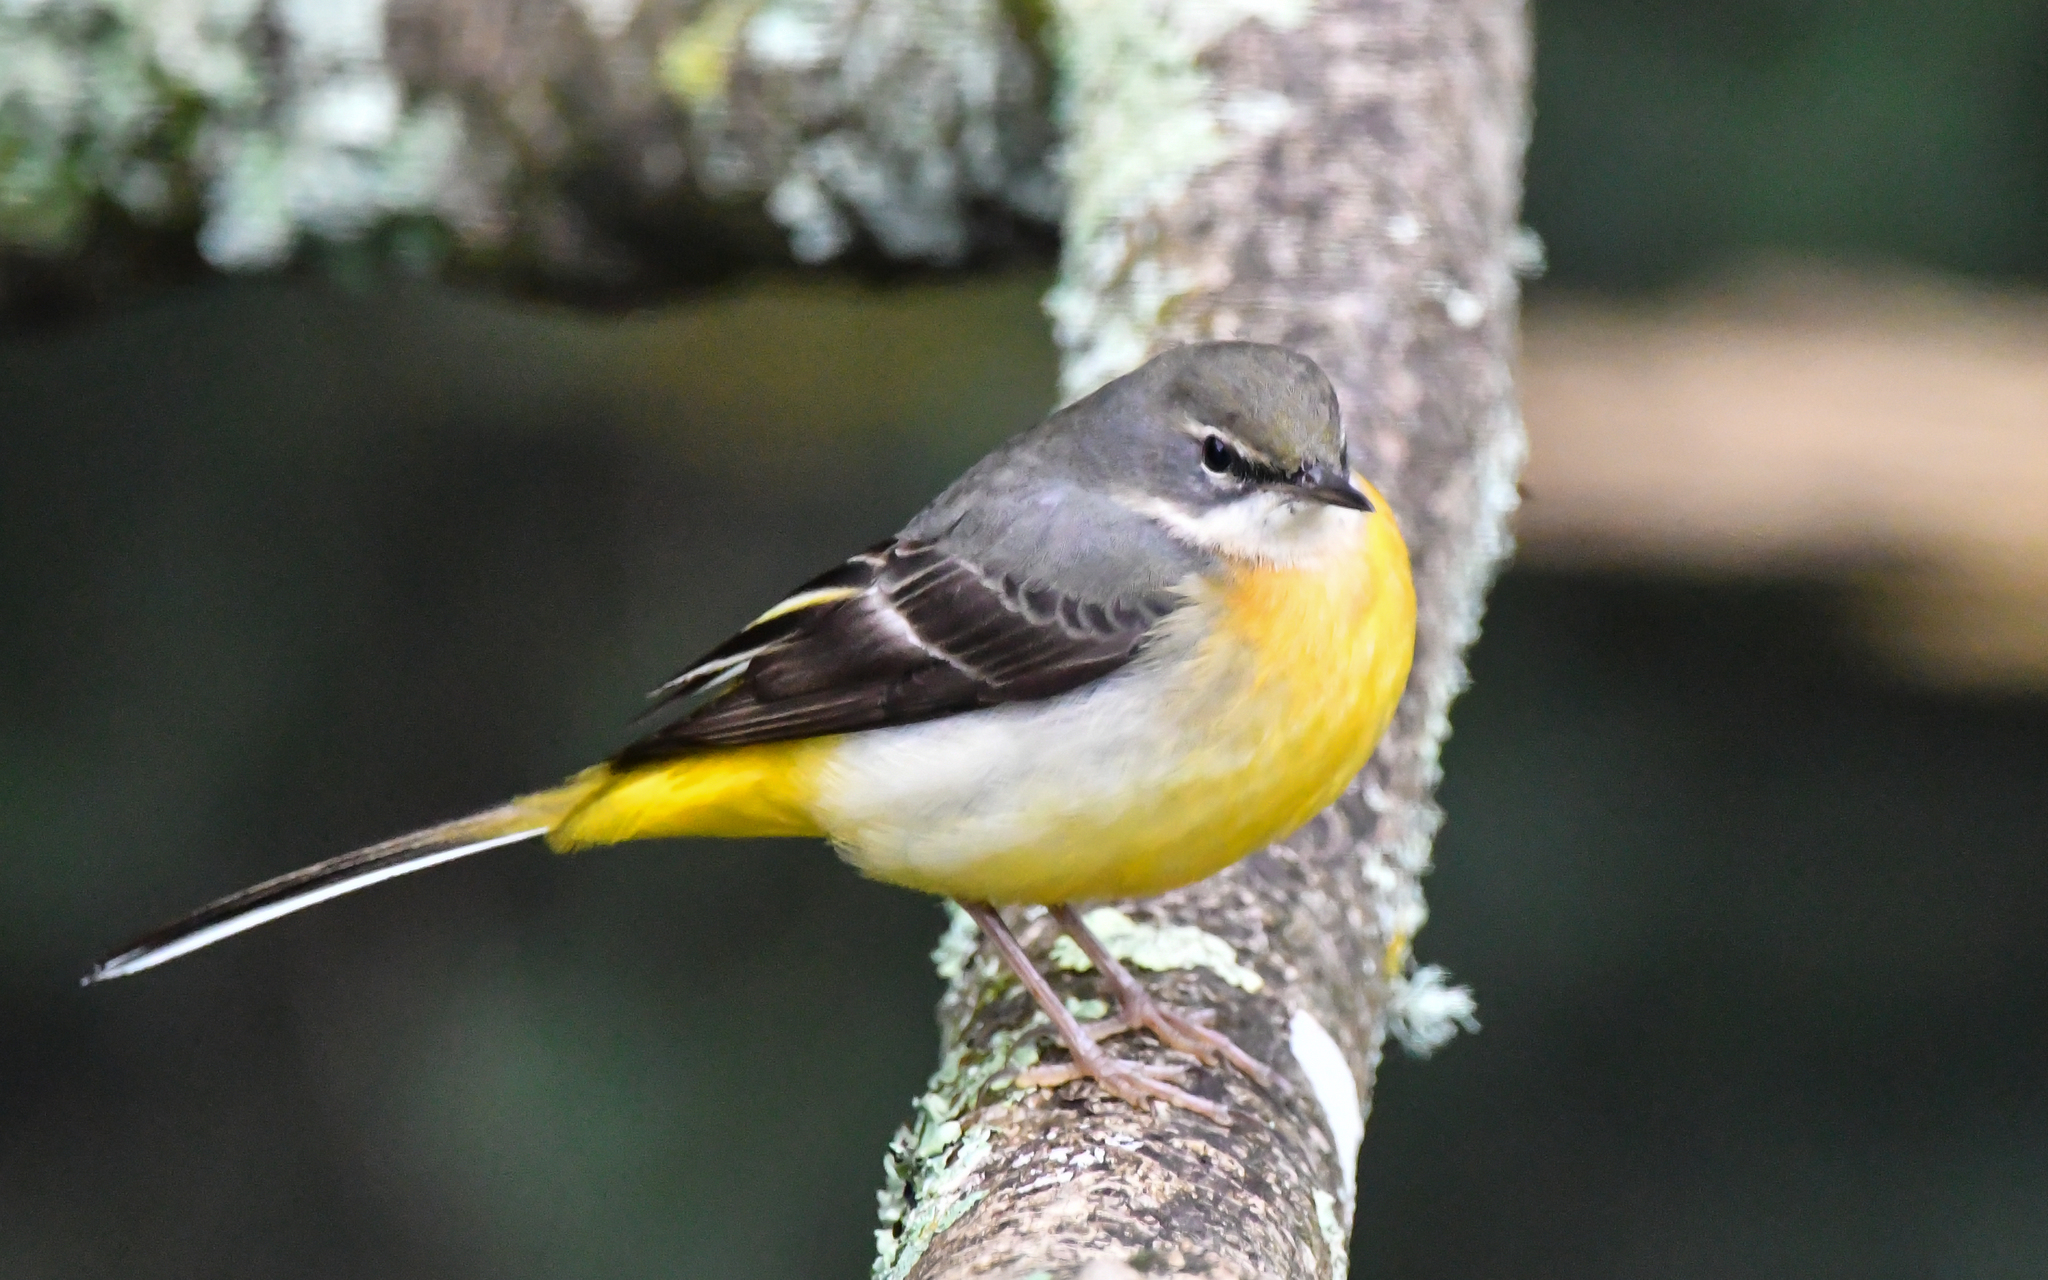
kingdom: Animalia
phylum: Chordata
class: Aves
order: Passeriformes
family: Motacillidae
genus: Motacilla
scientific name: Motacilla cinerea
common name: Grey wagtail
